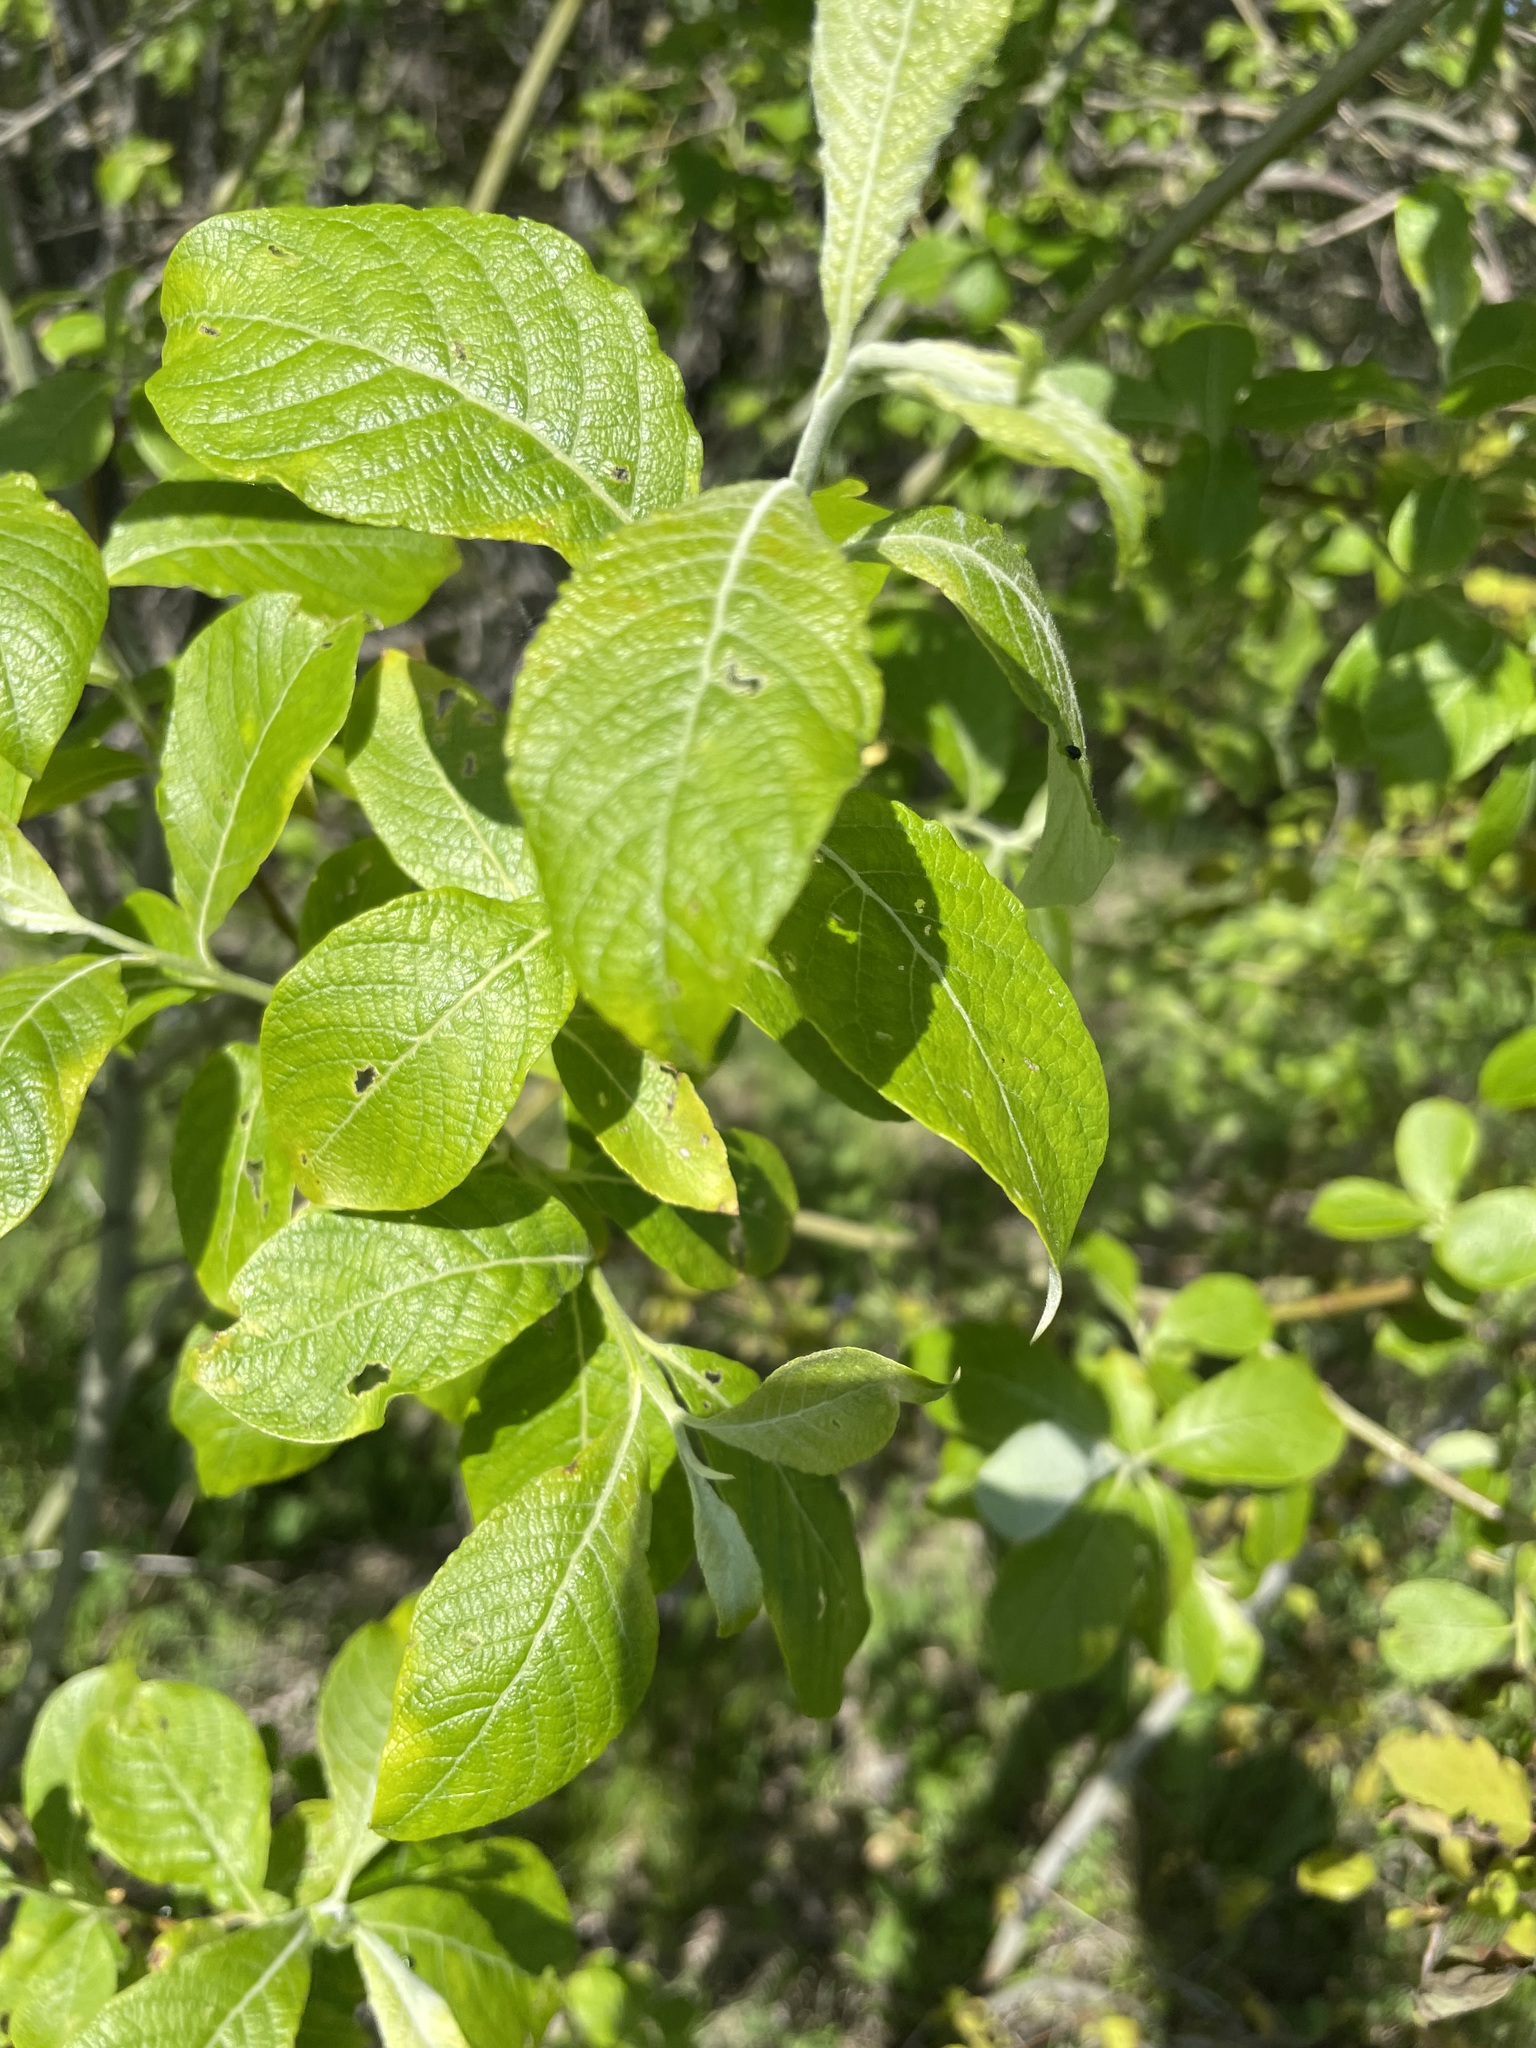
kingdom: Plantae
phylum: Tracheophyta
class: Magnoliopsida
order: Malpighiales
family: Salicaceae
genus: Salix
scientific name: Salix caprea
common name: Goat willow
